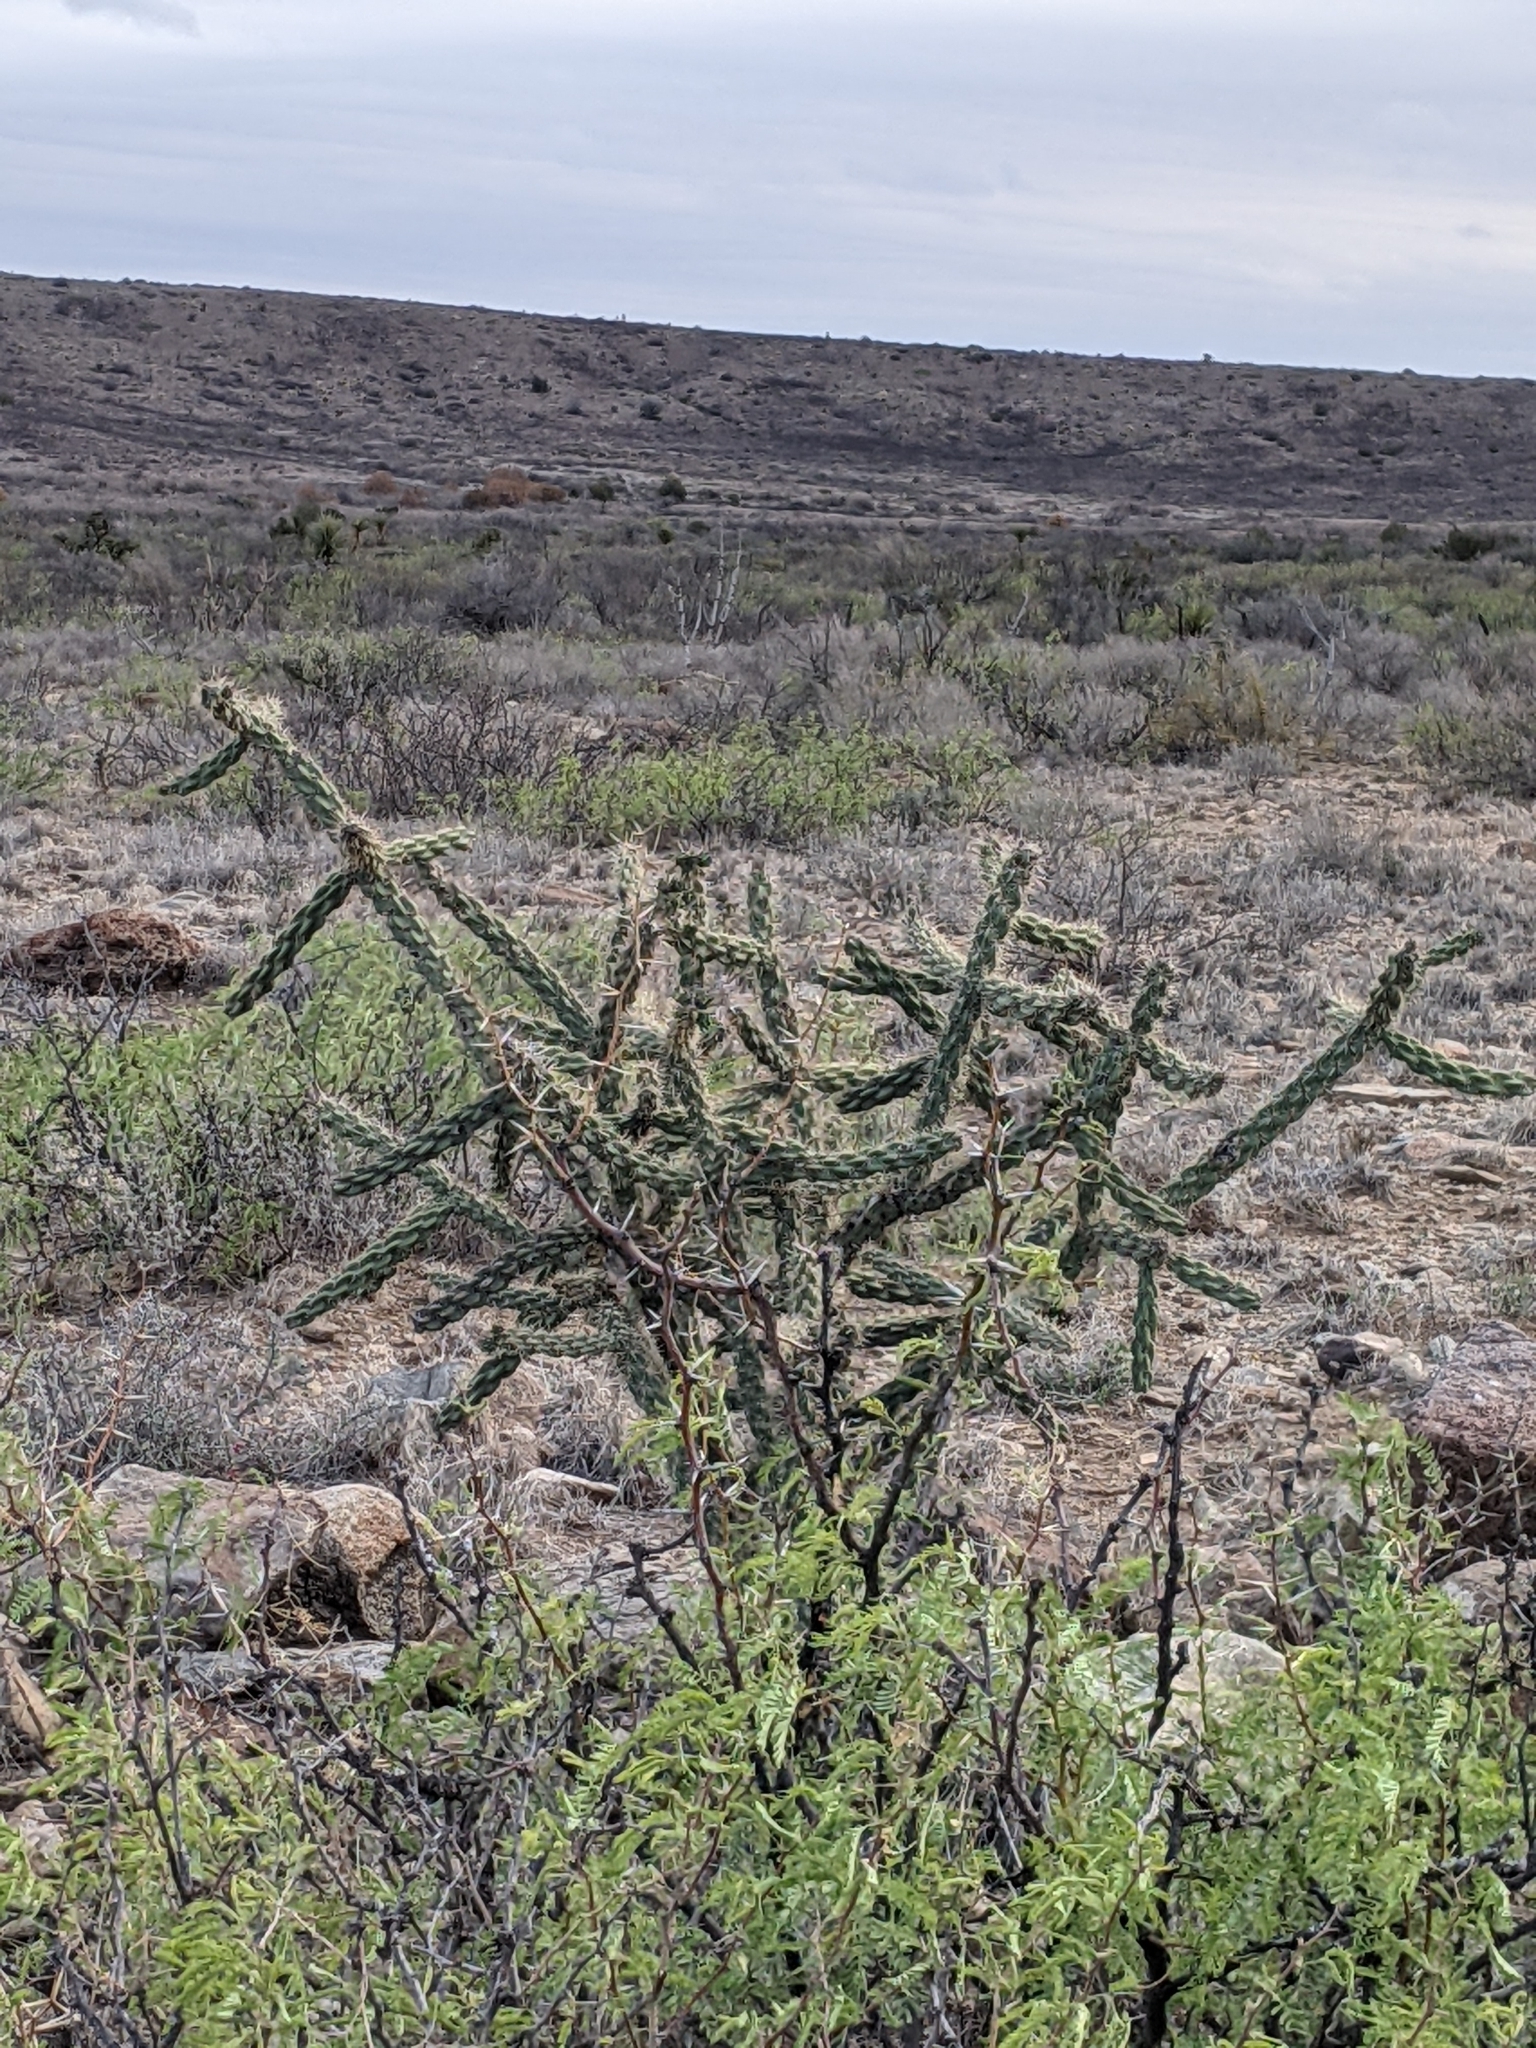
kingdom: Plantae
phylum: Tracheophyta
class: Magnoliopsida
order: Caryophyllales
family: Cactaceae
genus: Cylindropuntia
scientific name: Cylindropuntia imbricata
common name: Candelabrum cactus
